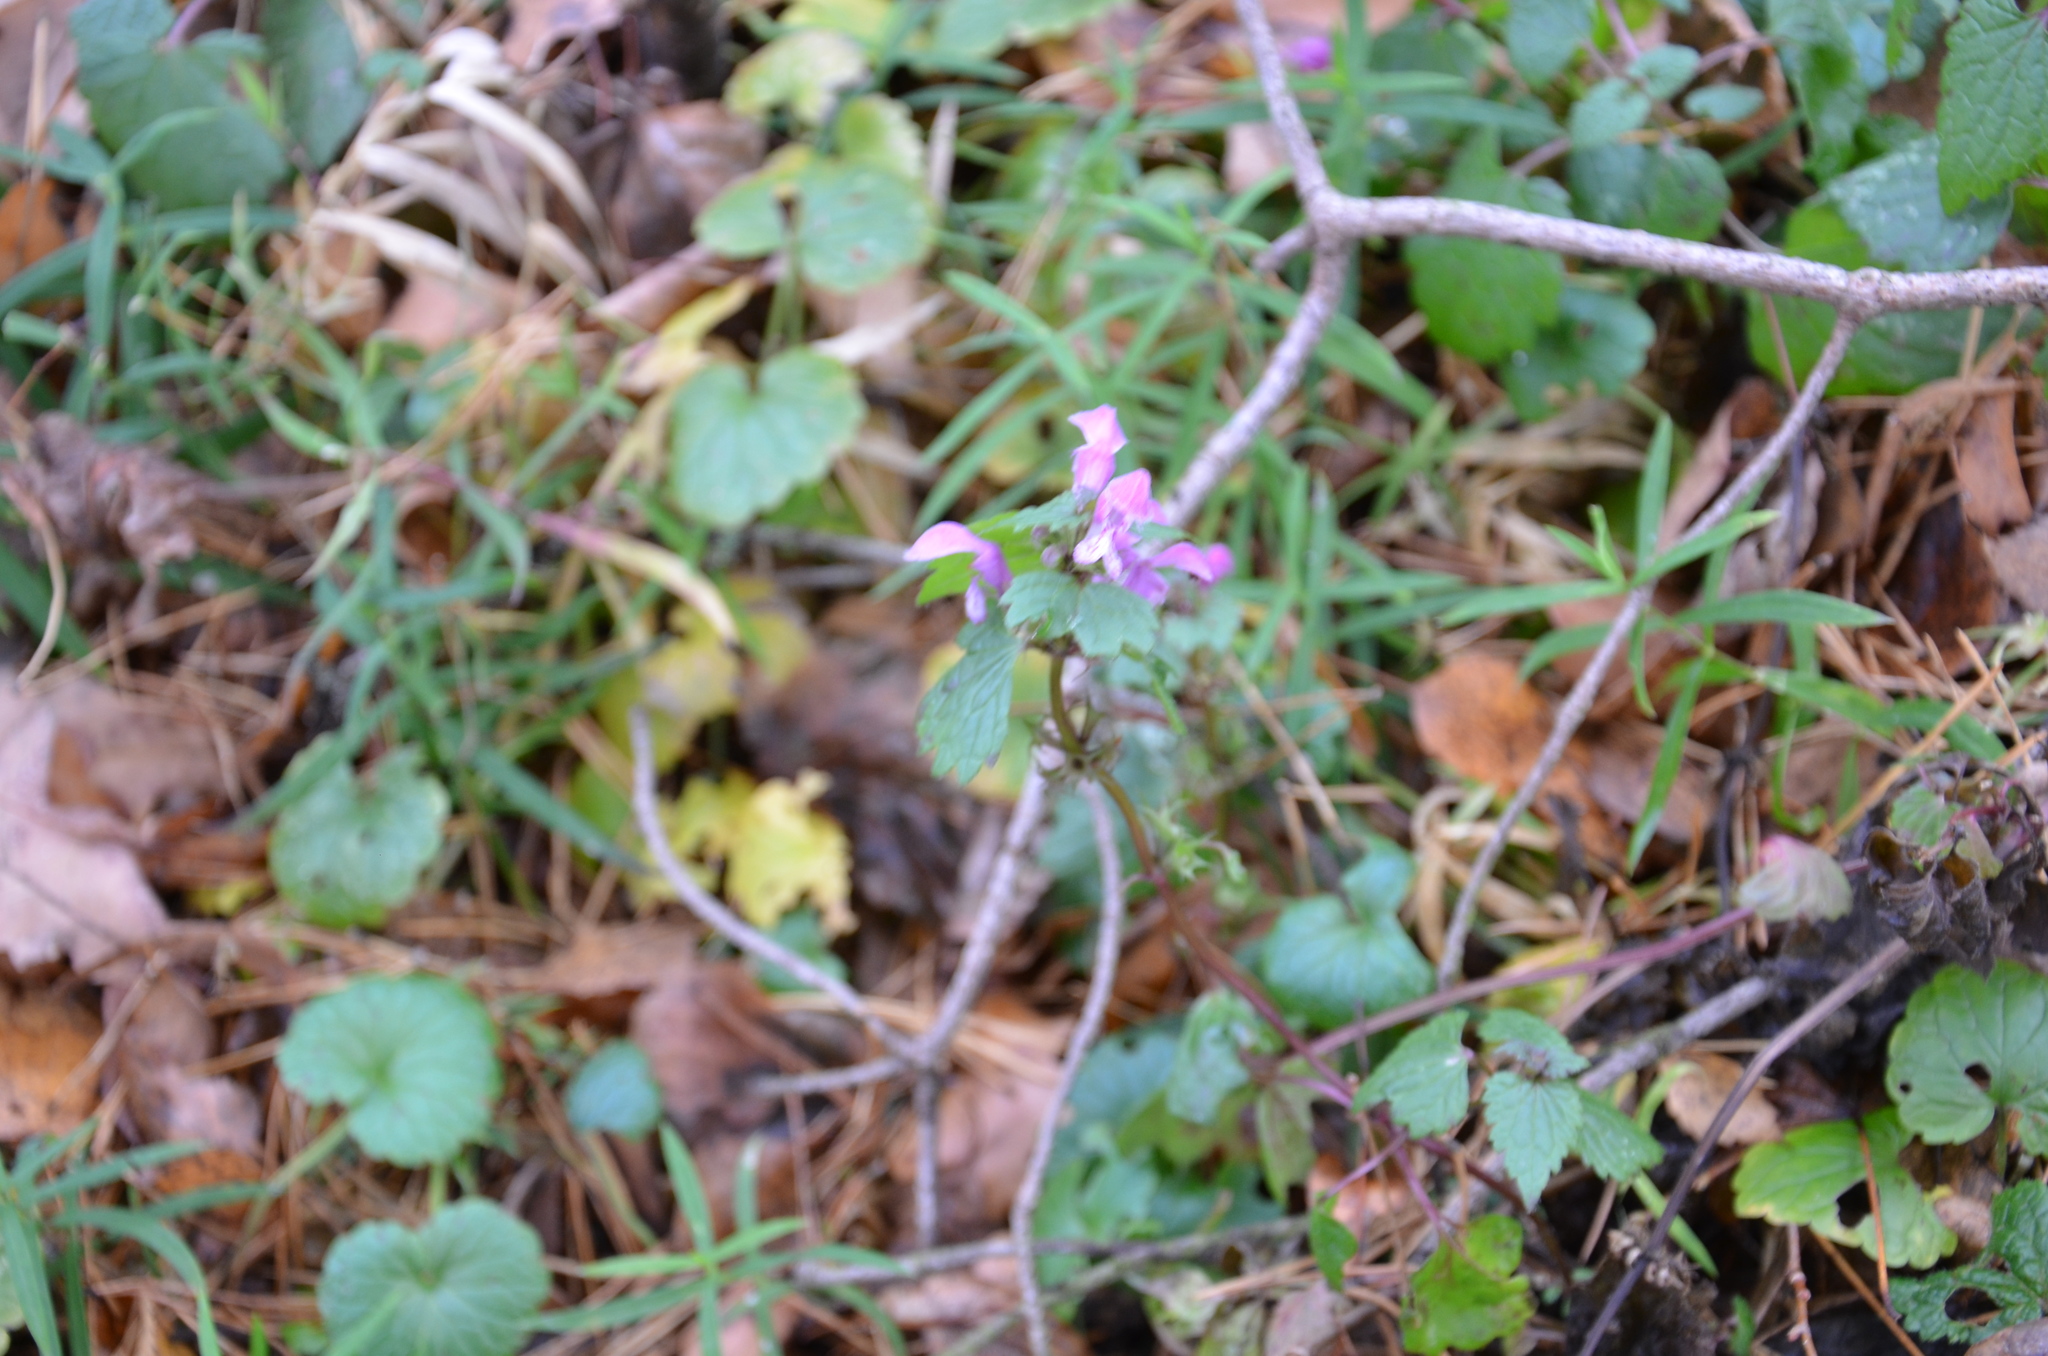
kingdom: Plantae
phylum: Tracheophyta
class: Magnoliopsida
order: Lamiales
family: Lamiaceae
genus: Lamium
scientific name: Lamium maculatum
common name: Spotted dead-nettle
